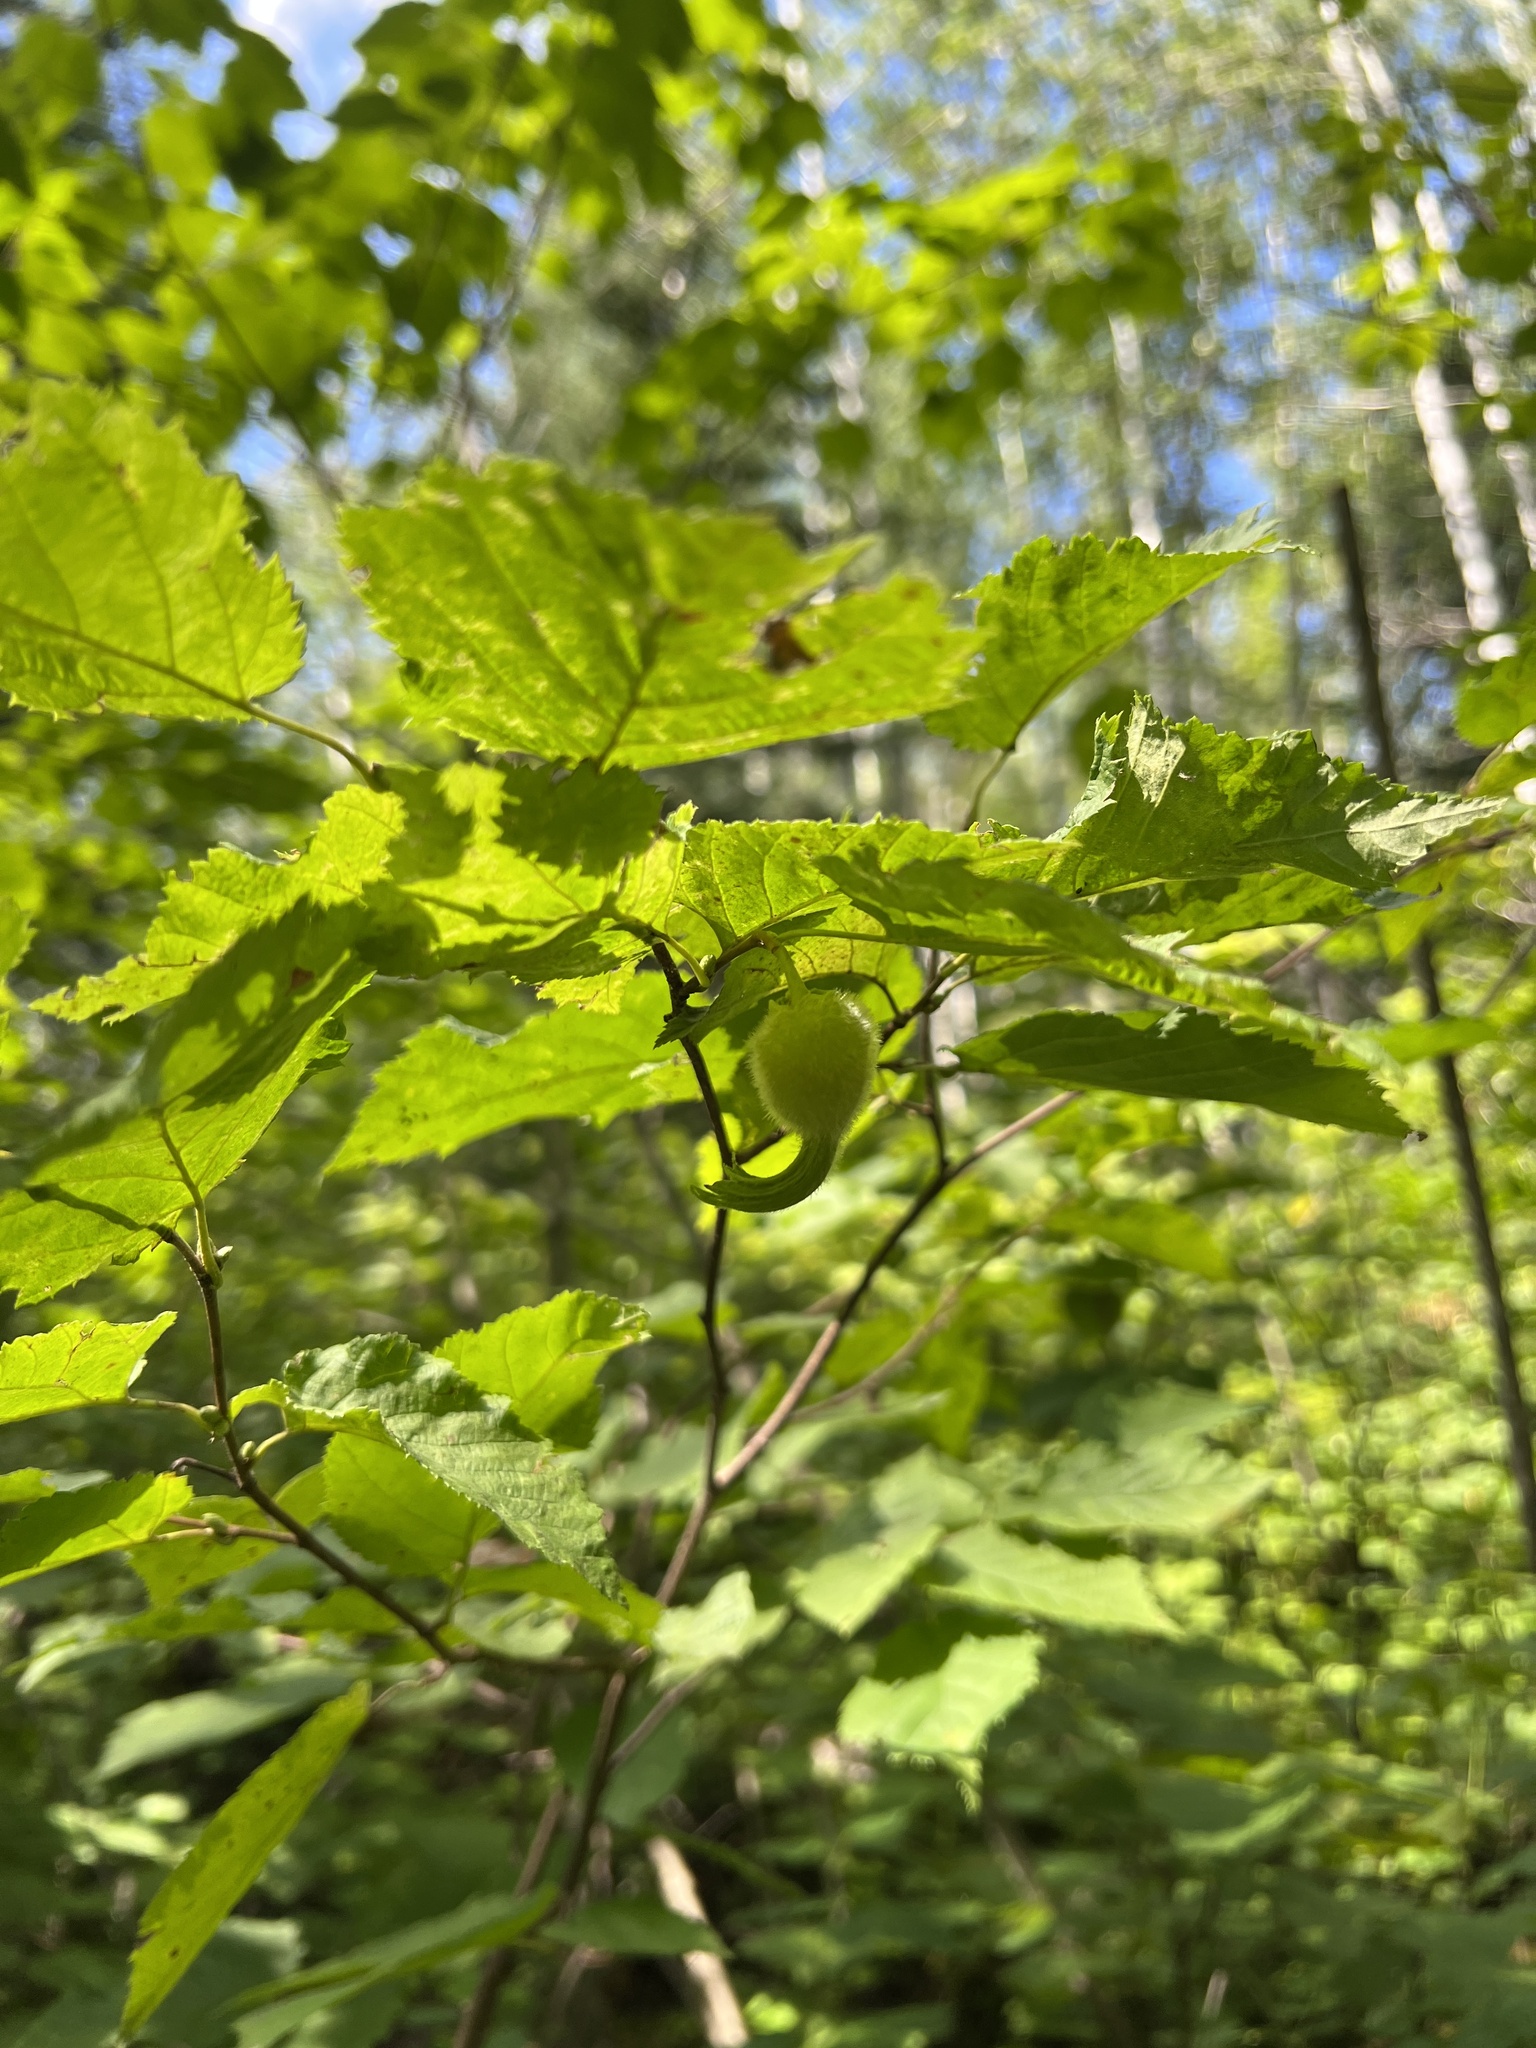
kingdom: Plantae
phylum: Tracheophyta
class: Magnoliopsida
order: Fagales
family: Betulaceae
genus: Corylus
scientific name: Corylus cornuta
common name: Beaked hazel
